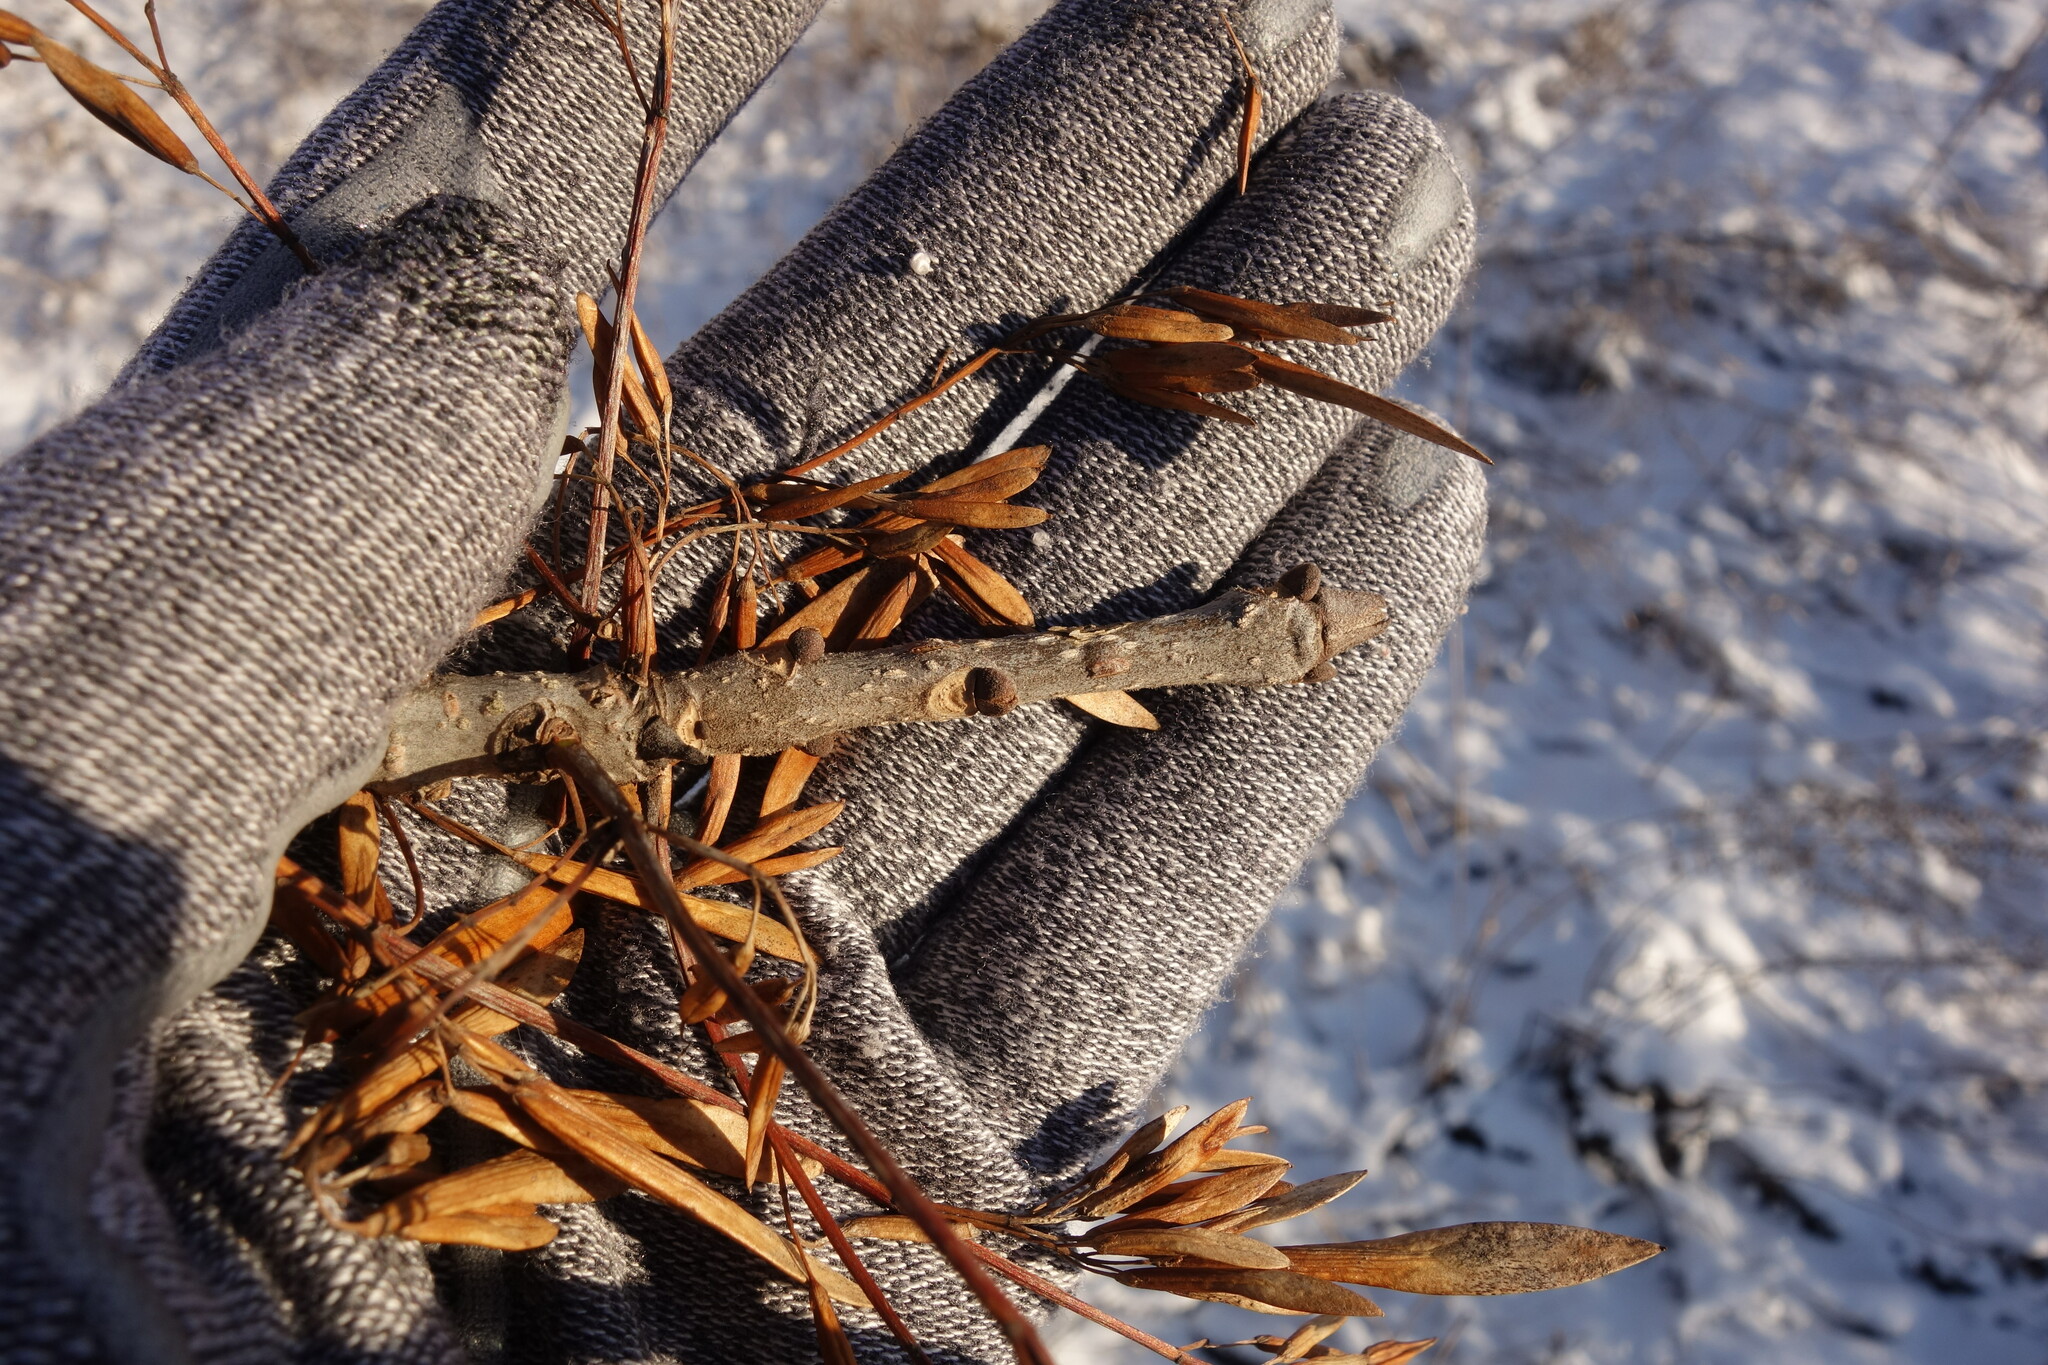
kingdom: Plantae
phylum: Tracheophyta
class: Magnoliopsida
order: Lamiales
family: Oleaceae
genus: Fraxinus
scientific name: Fraxinus pennsylvanica
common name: Green ash
